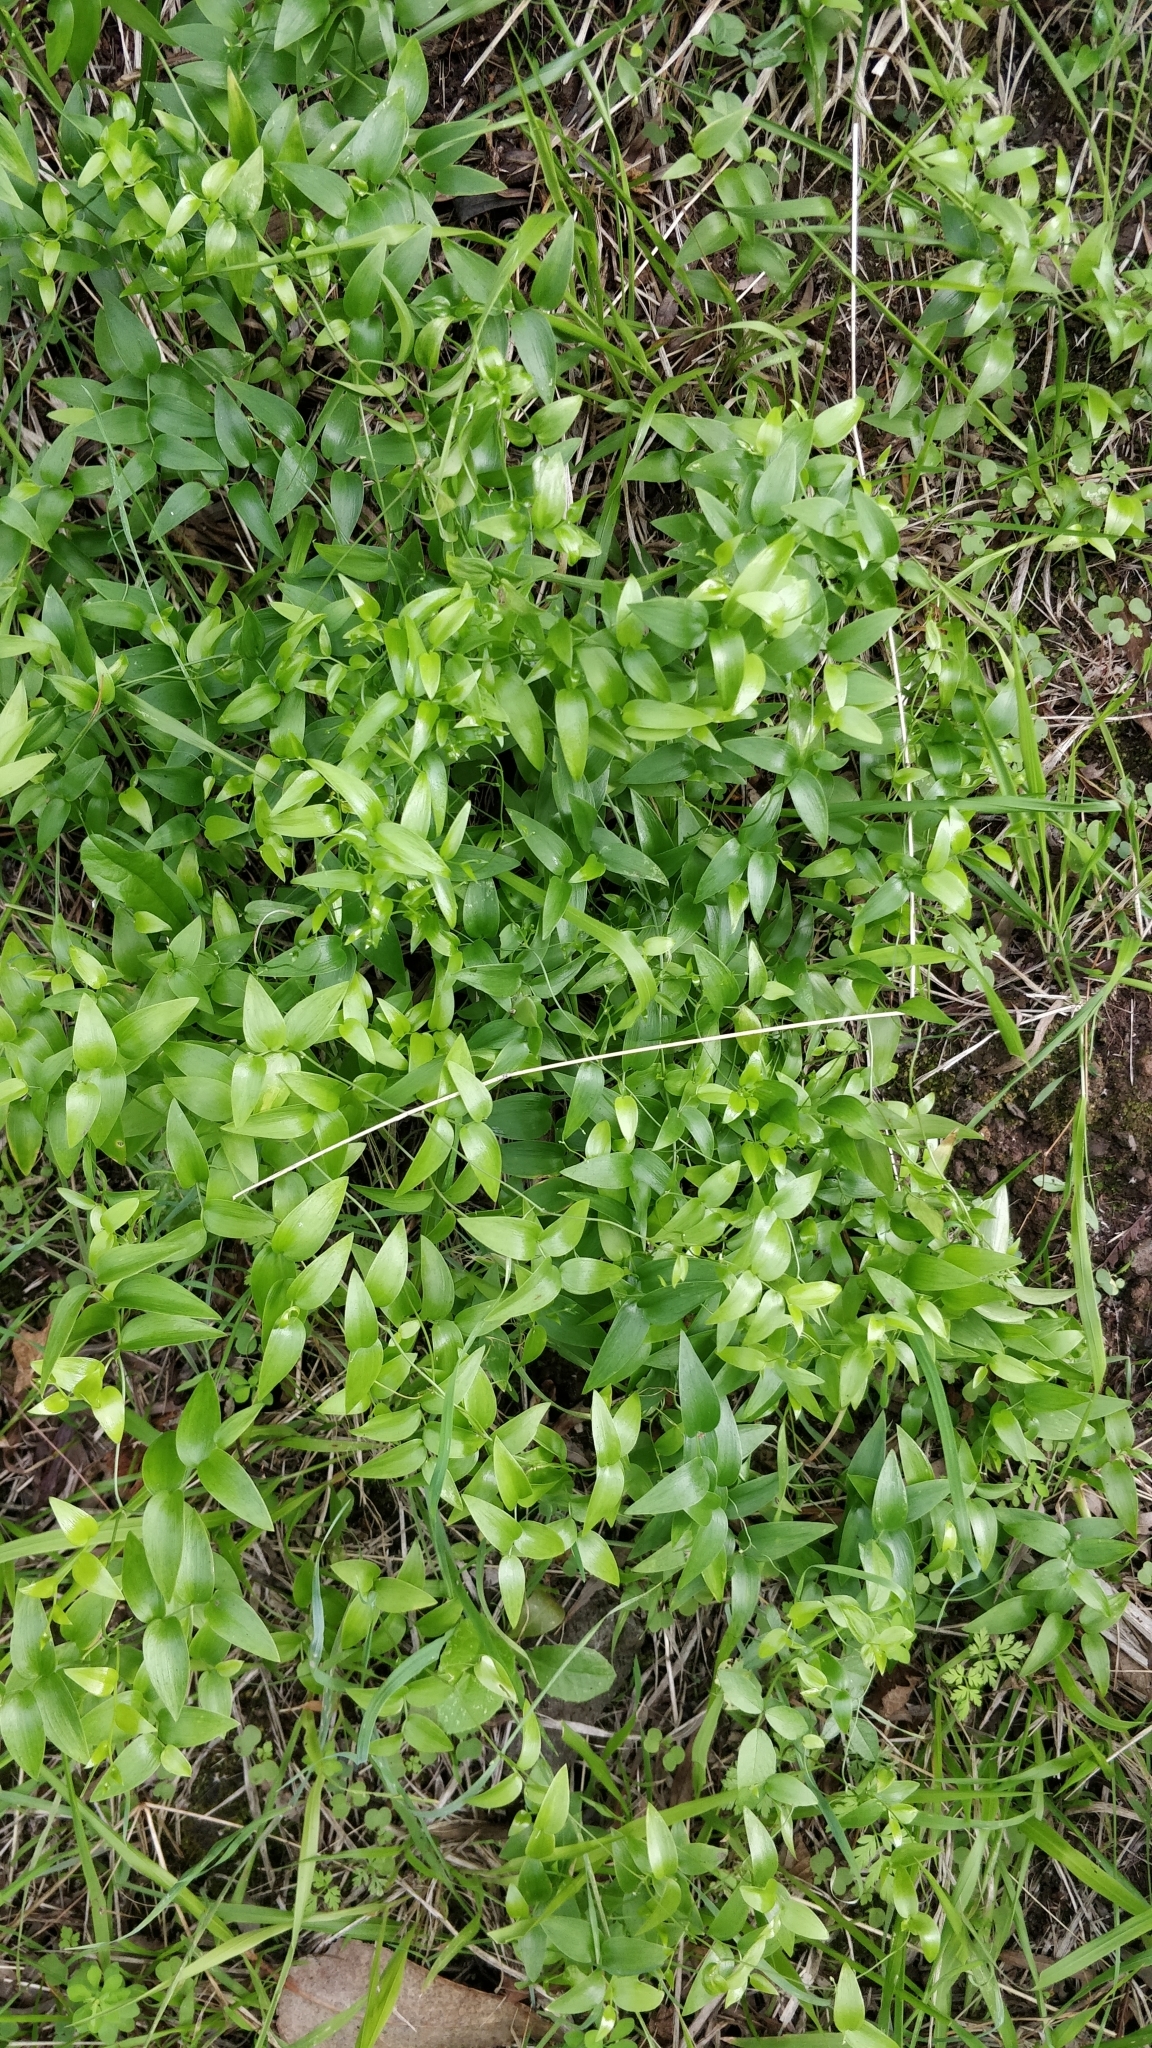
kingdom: Plantae
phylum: Tracheophyta
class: Liliopsida
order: Asparagales
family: Asparagaceae
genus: Asparagus
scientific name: Asparagus asparagoides
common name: African asparagus fern
